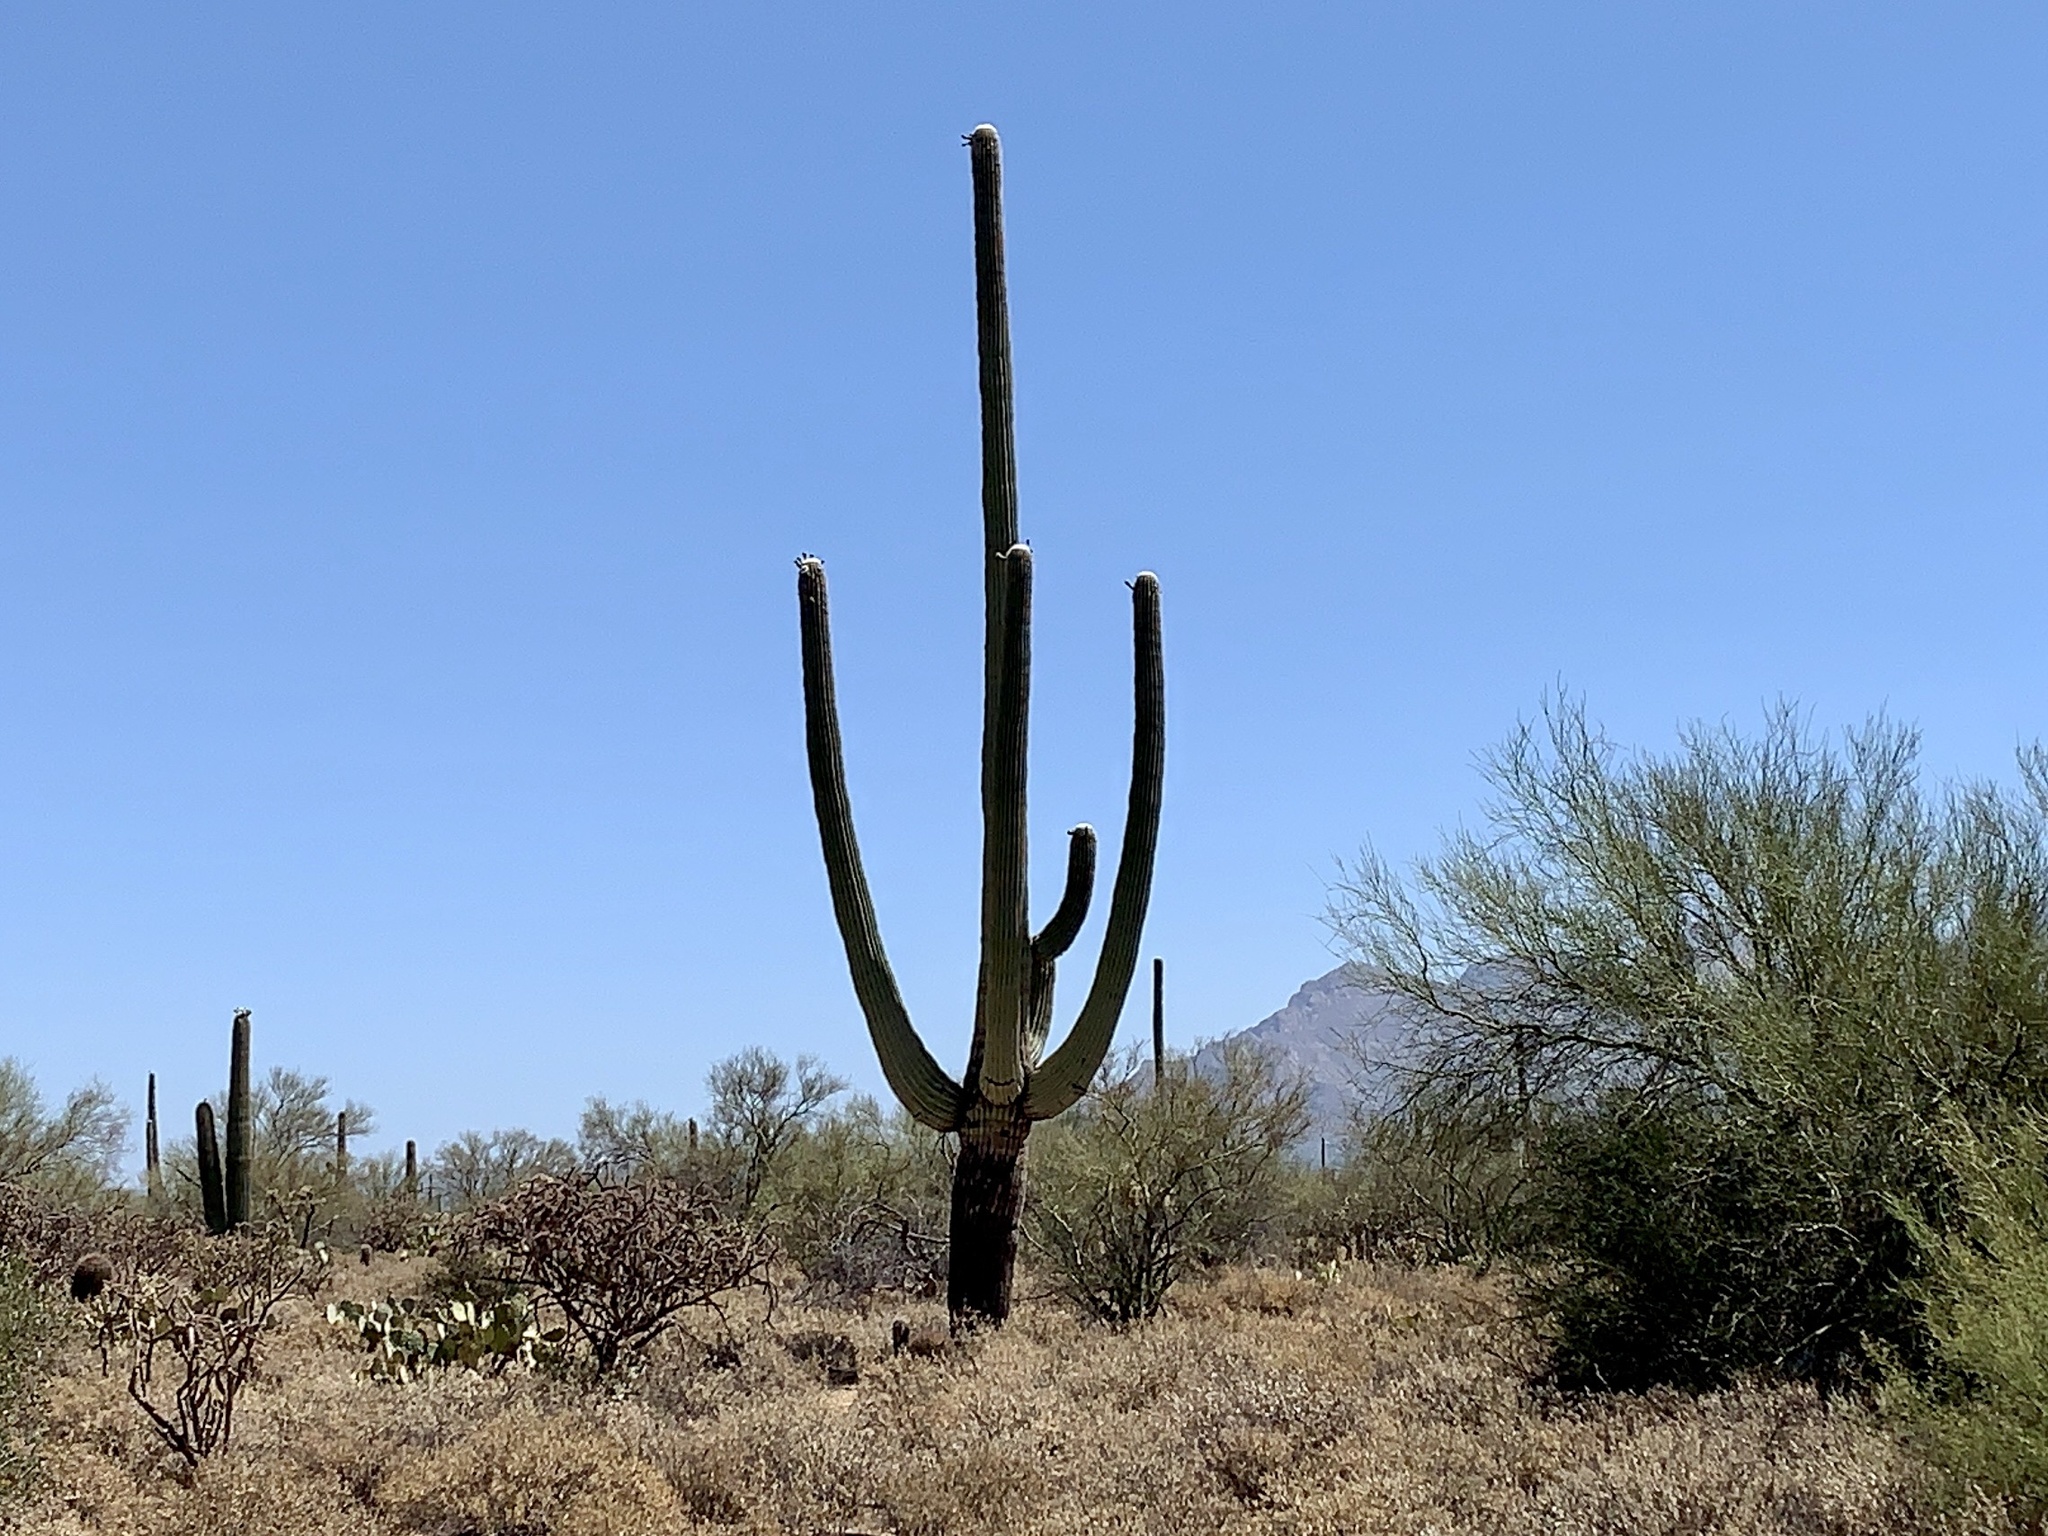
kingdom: Plantae
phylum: Tracheophyta
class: Magnoliopsida
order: Caryophyllales
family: Cactaceae
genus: Carnegiea
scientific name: Carnegiea gigantea
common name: Saguaro
